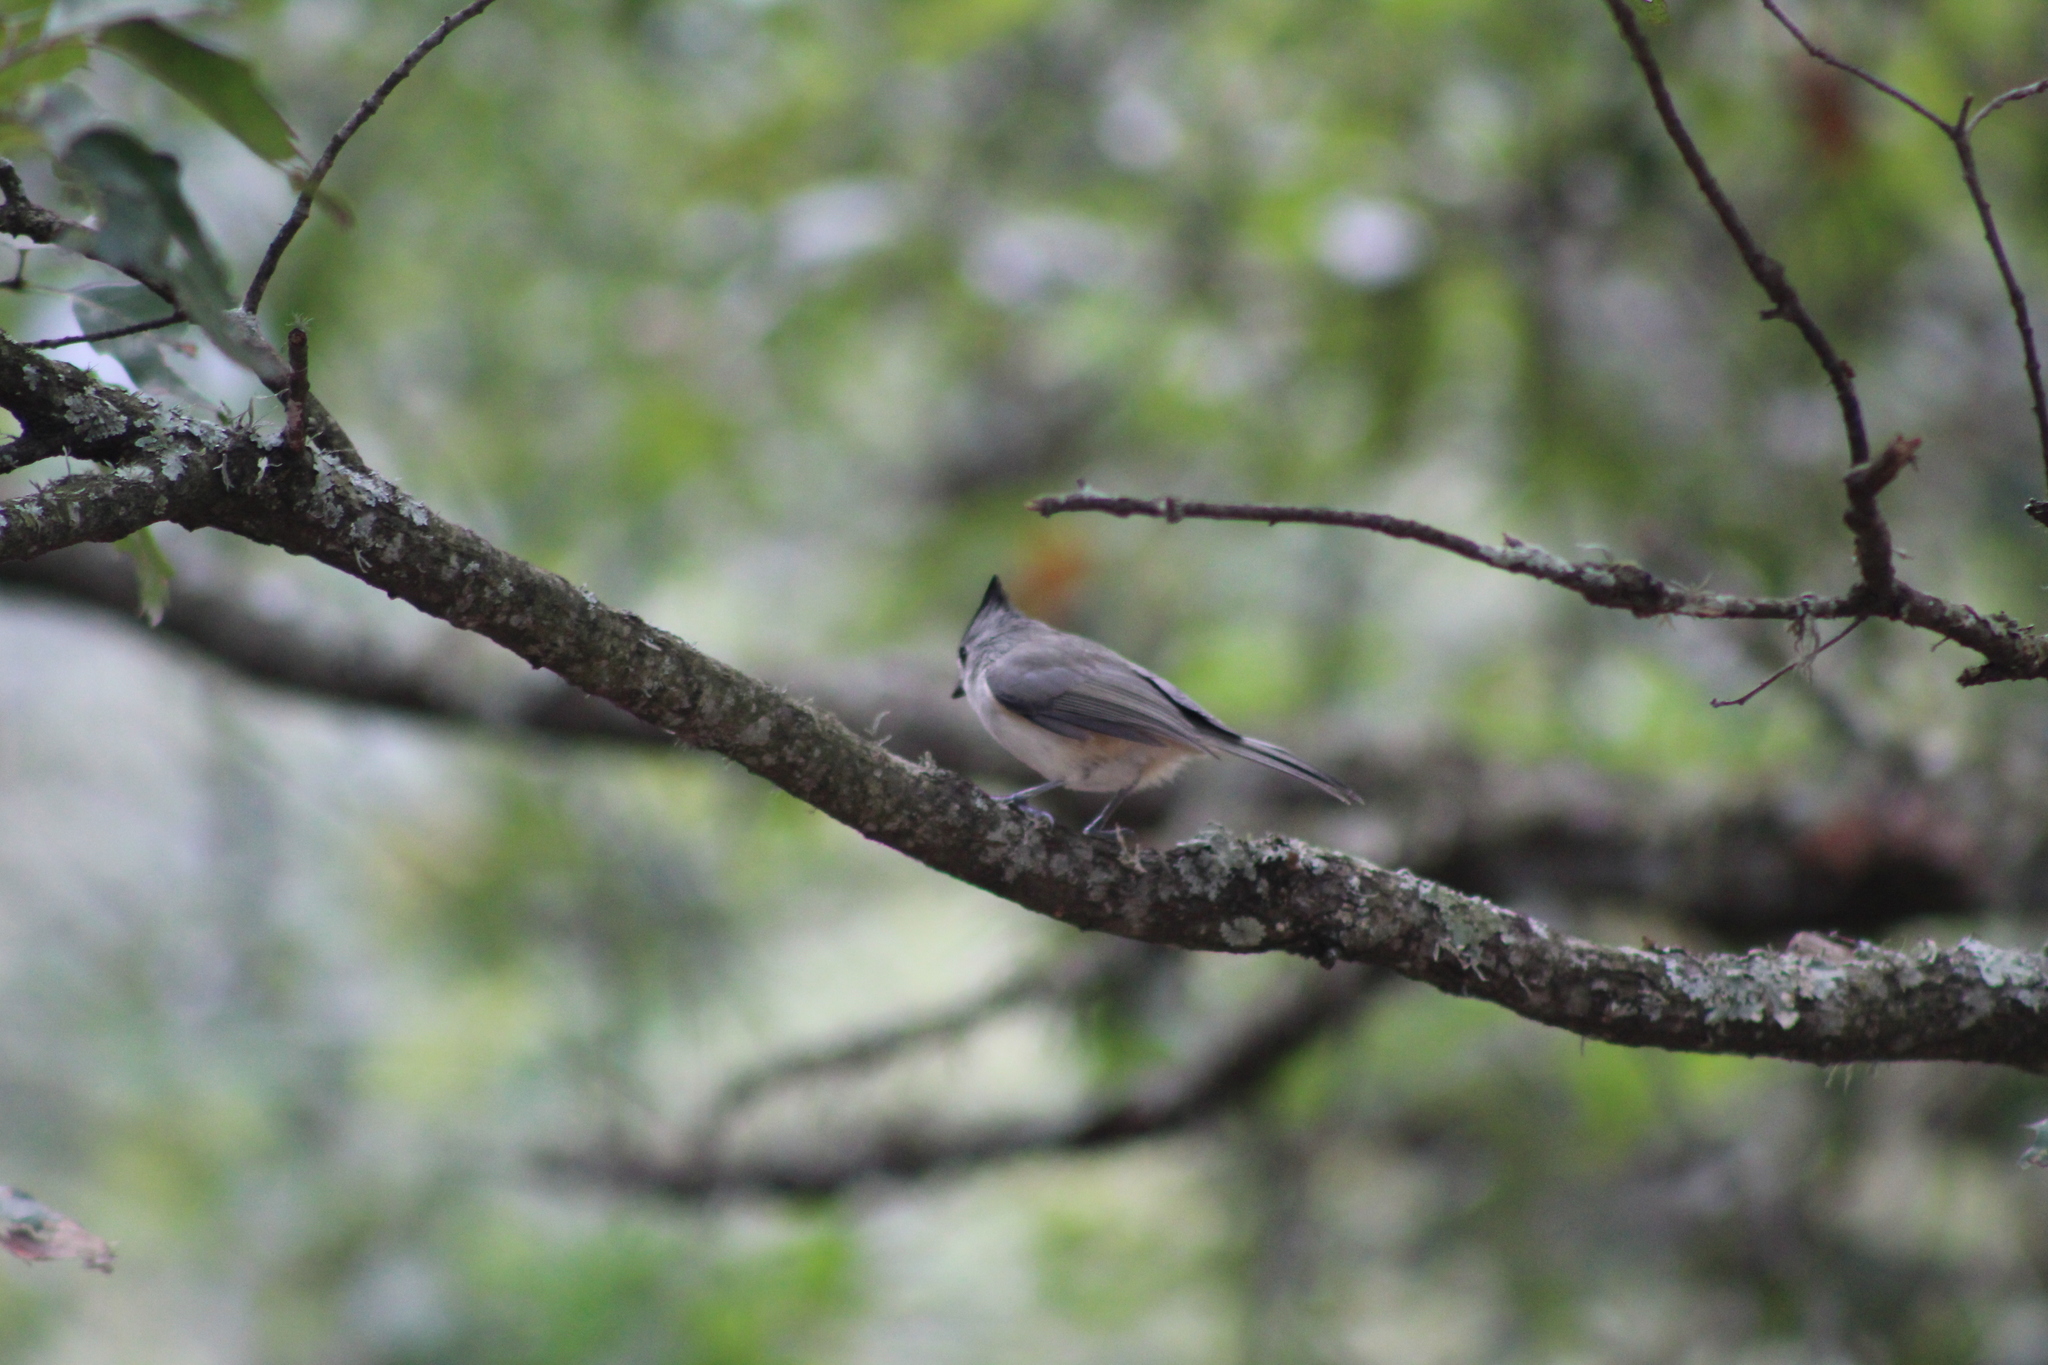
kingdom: Animalia
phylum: Chordata
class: Aves
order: Passeriformes
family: Paridae
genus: Baeolophus
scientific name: Baeolophus atricristatus
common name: Black-crested titmouse
